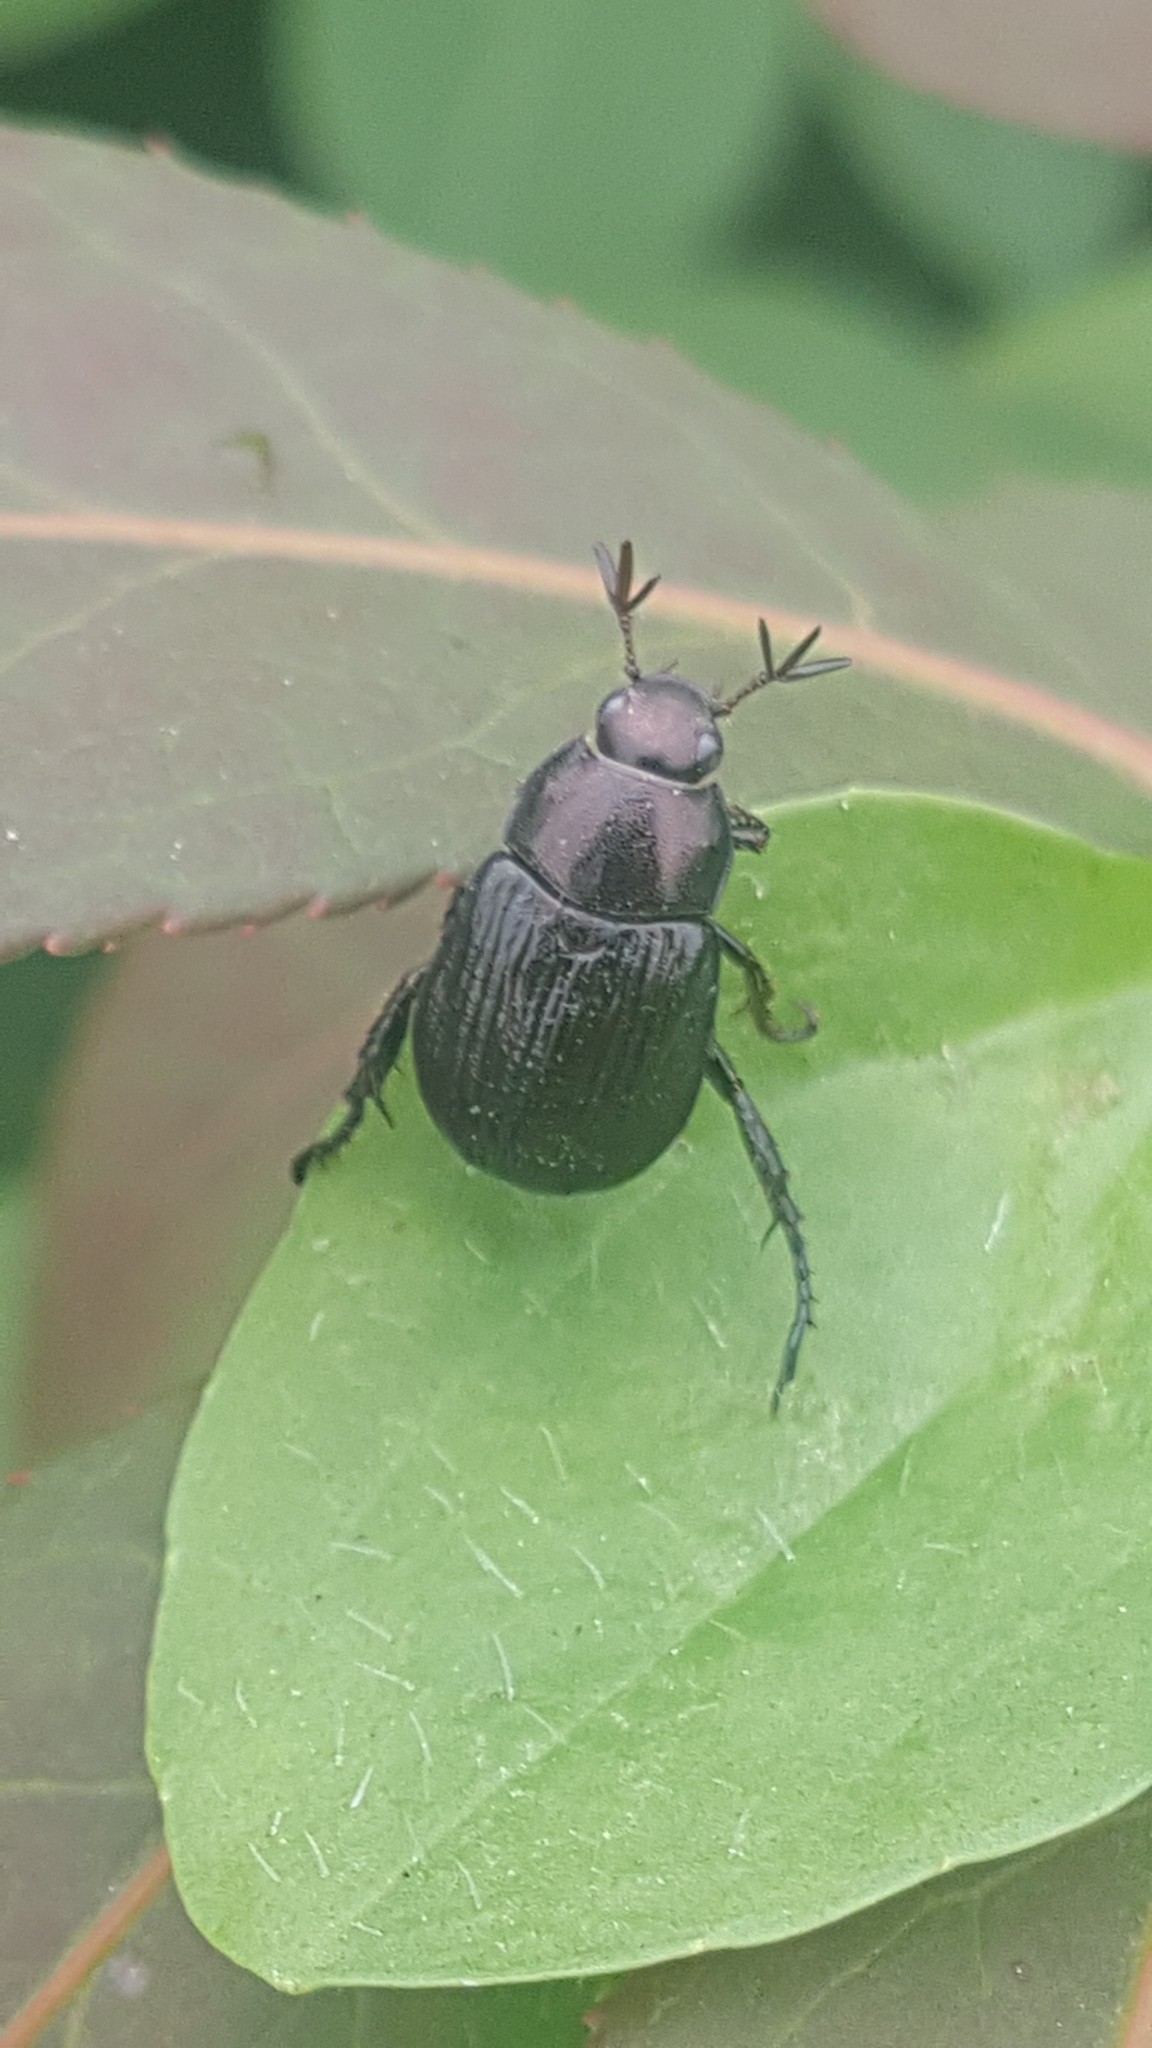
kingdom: Animalia
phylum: Arthropoda
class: Insecta
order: Coleoptera
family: Scarabaeidae
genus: Exomala
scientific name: Exomala orientalis
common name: Oriental beetle
